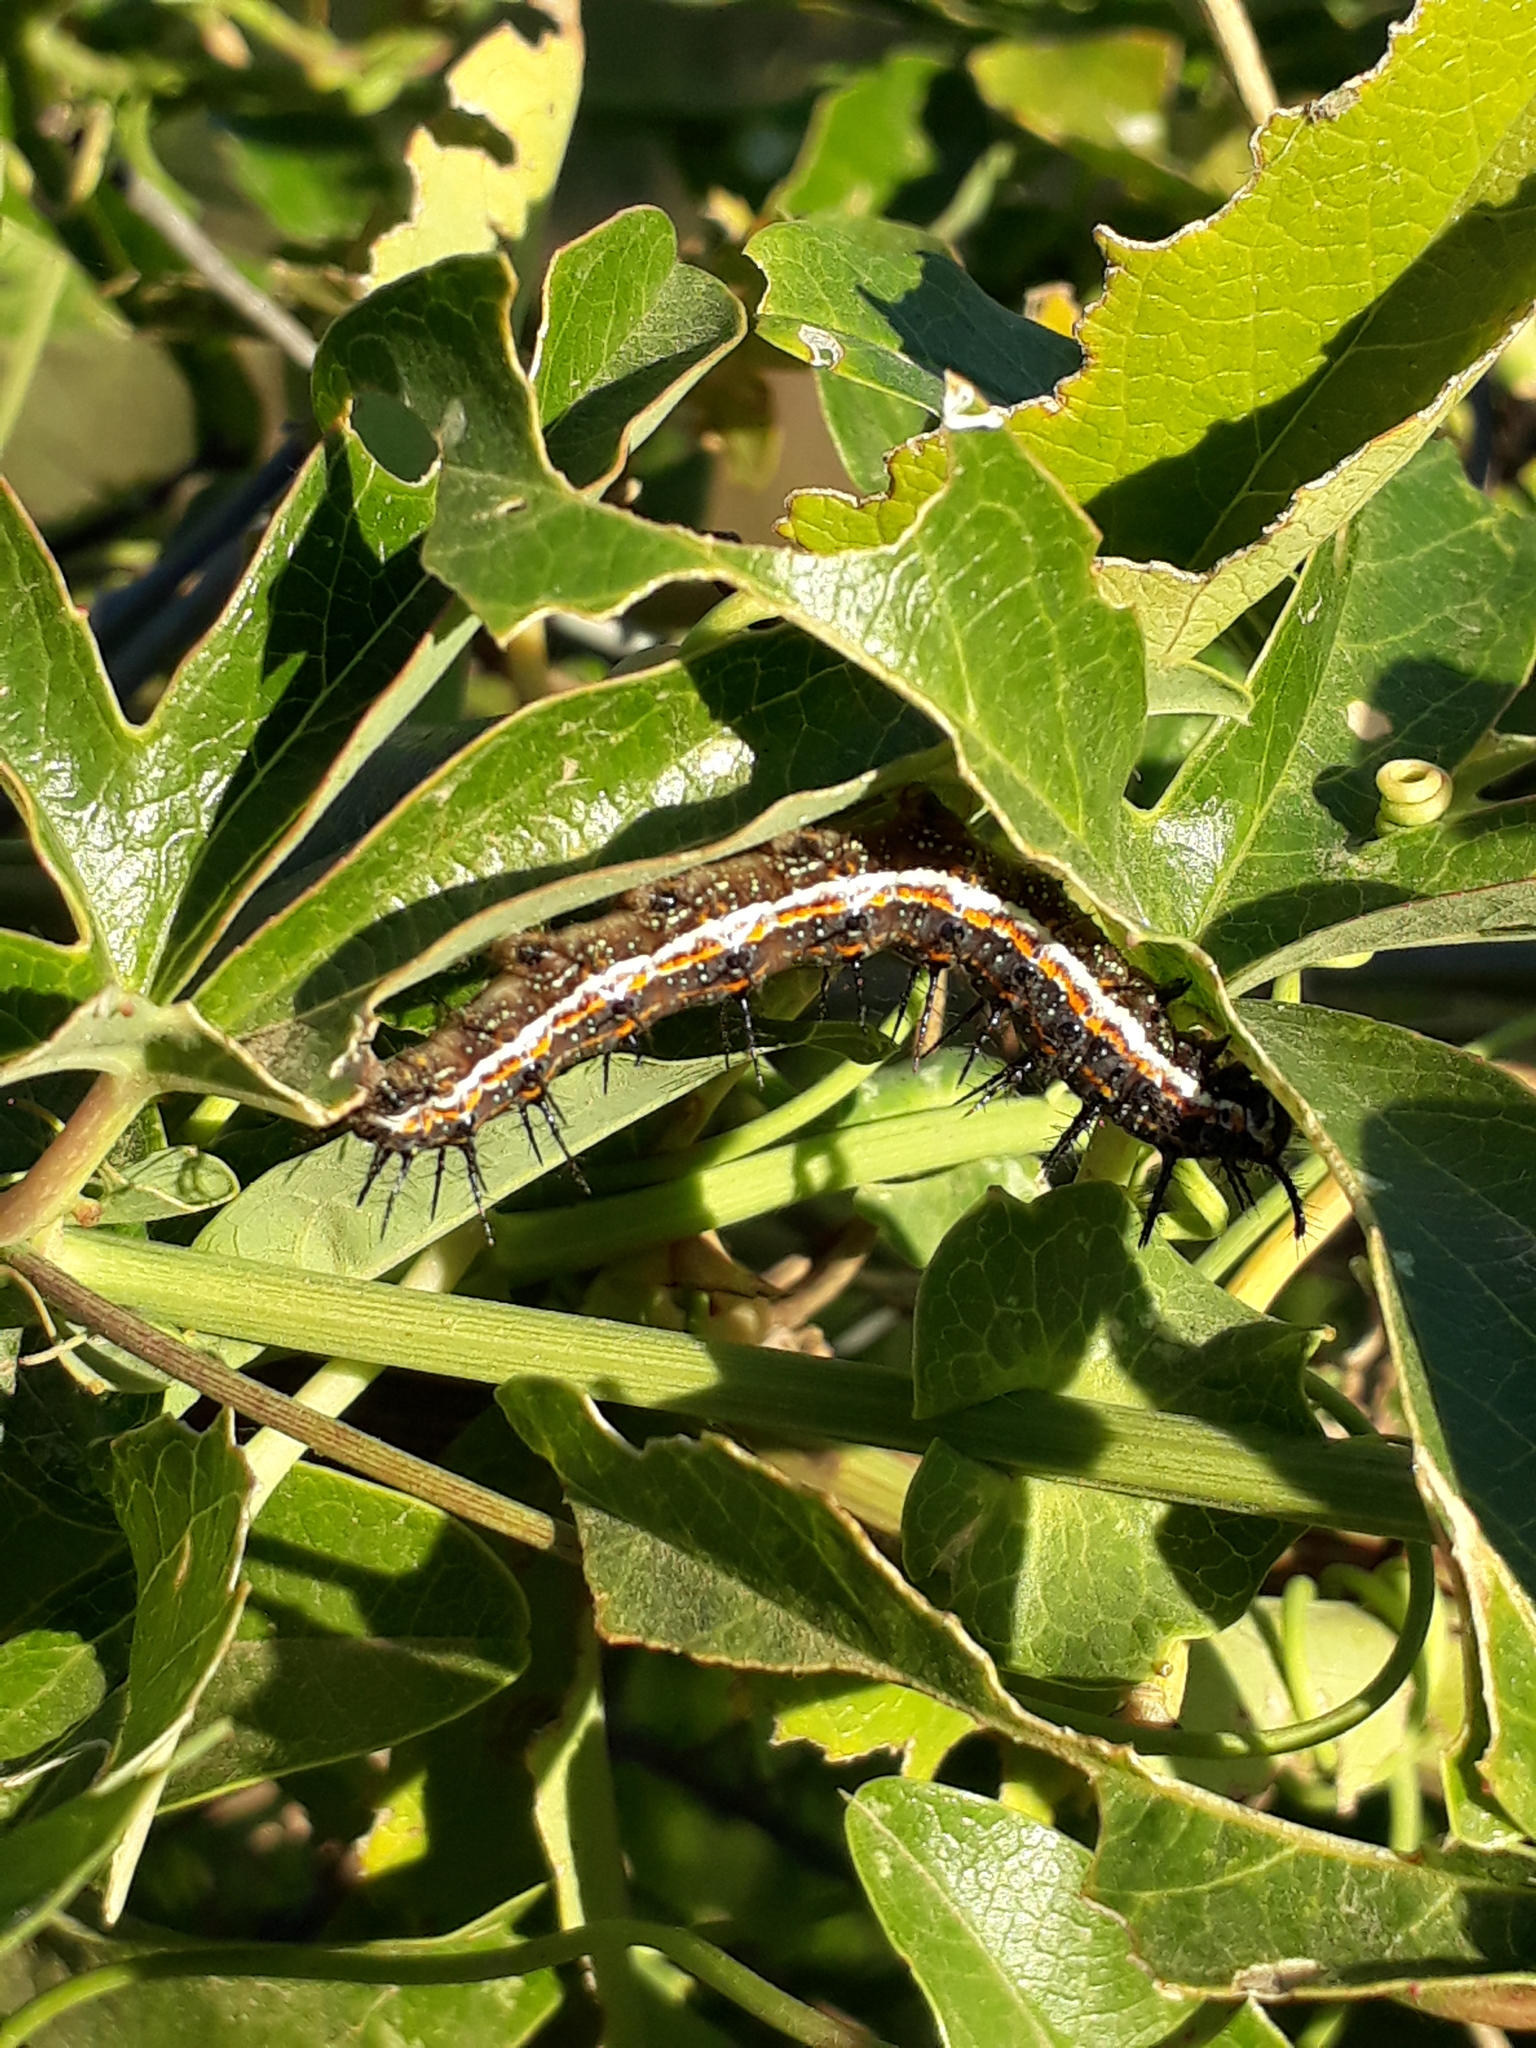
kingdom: Animalia
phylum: Arthropoda
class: Insecta
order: Lepidoptera
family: Nymphalidae
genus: Dione
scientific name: Dione vanillae
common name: Gulf fritillary
